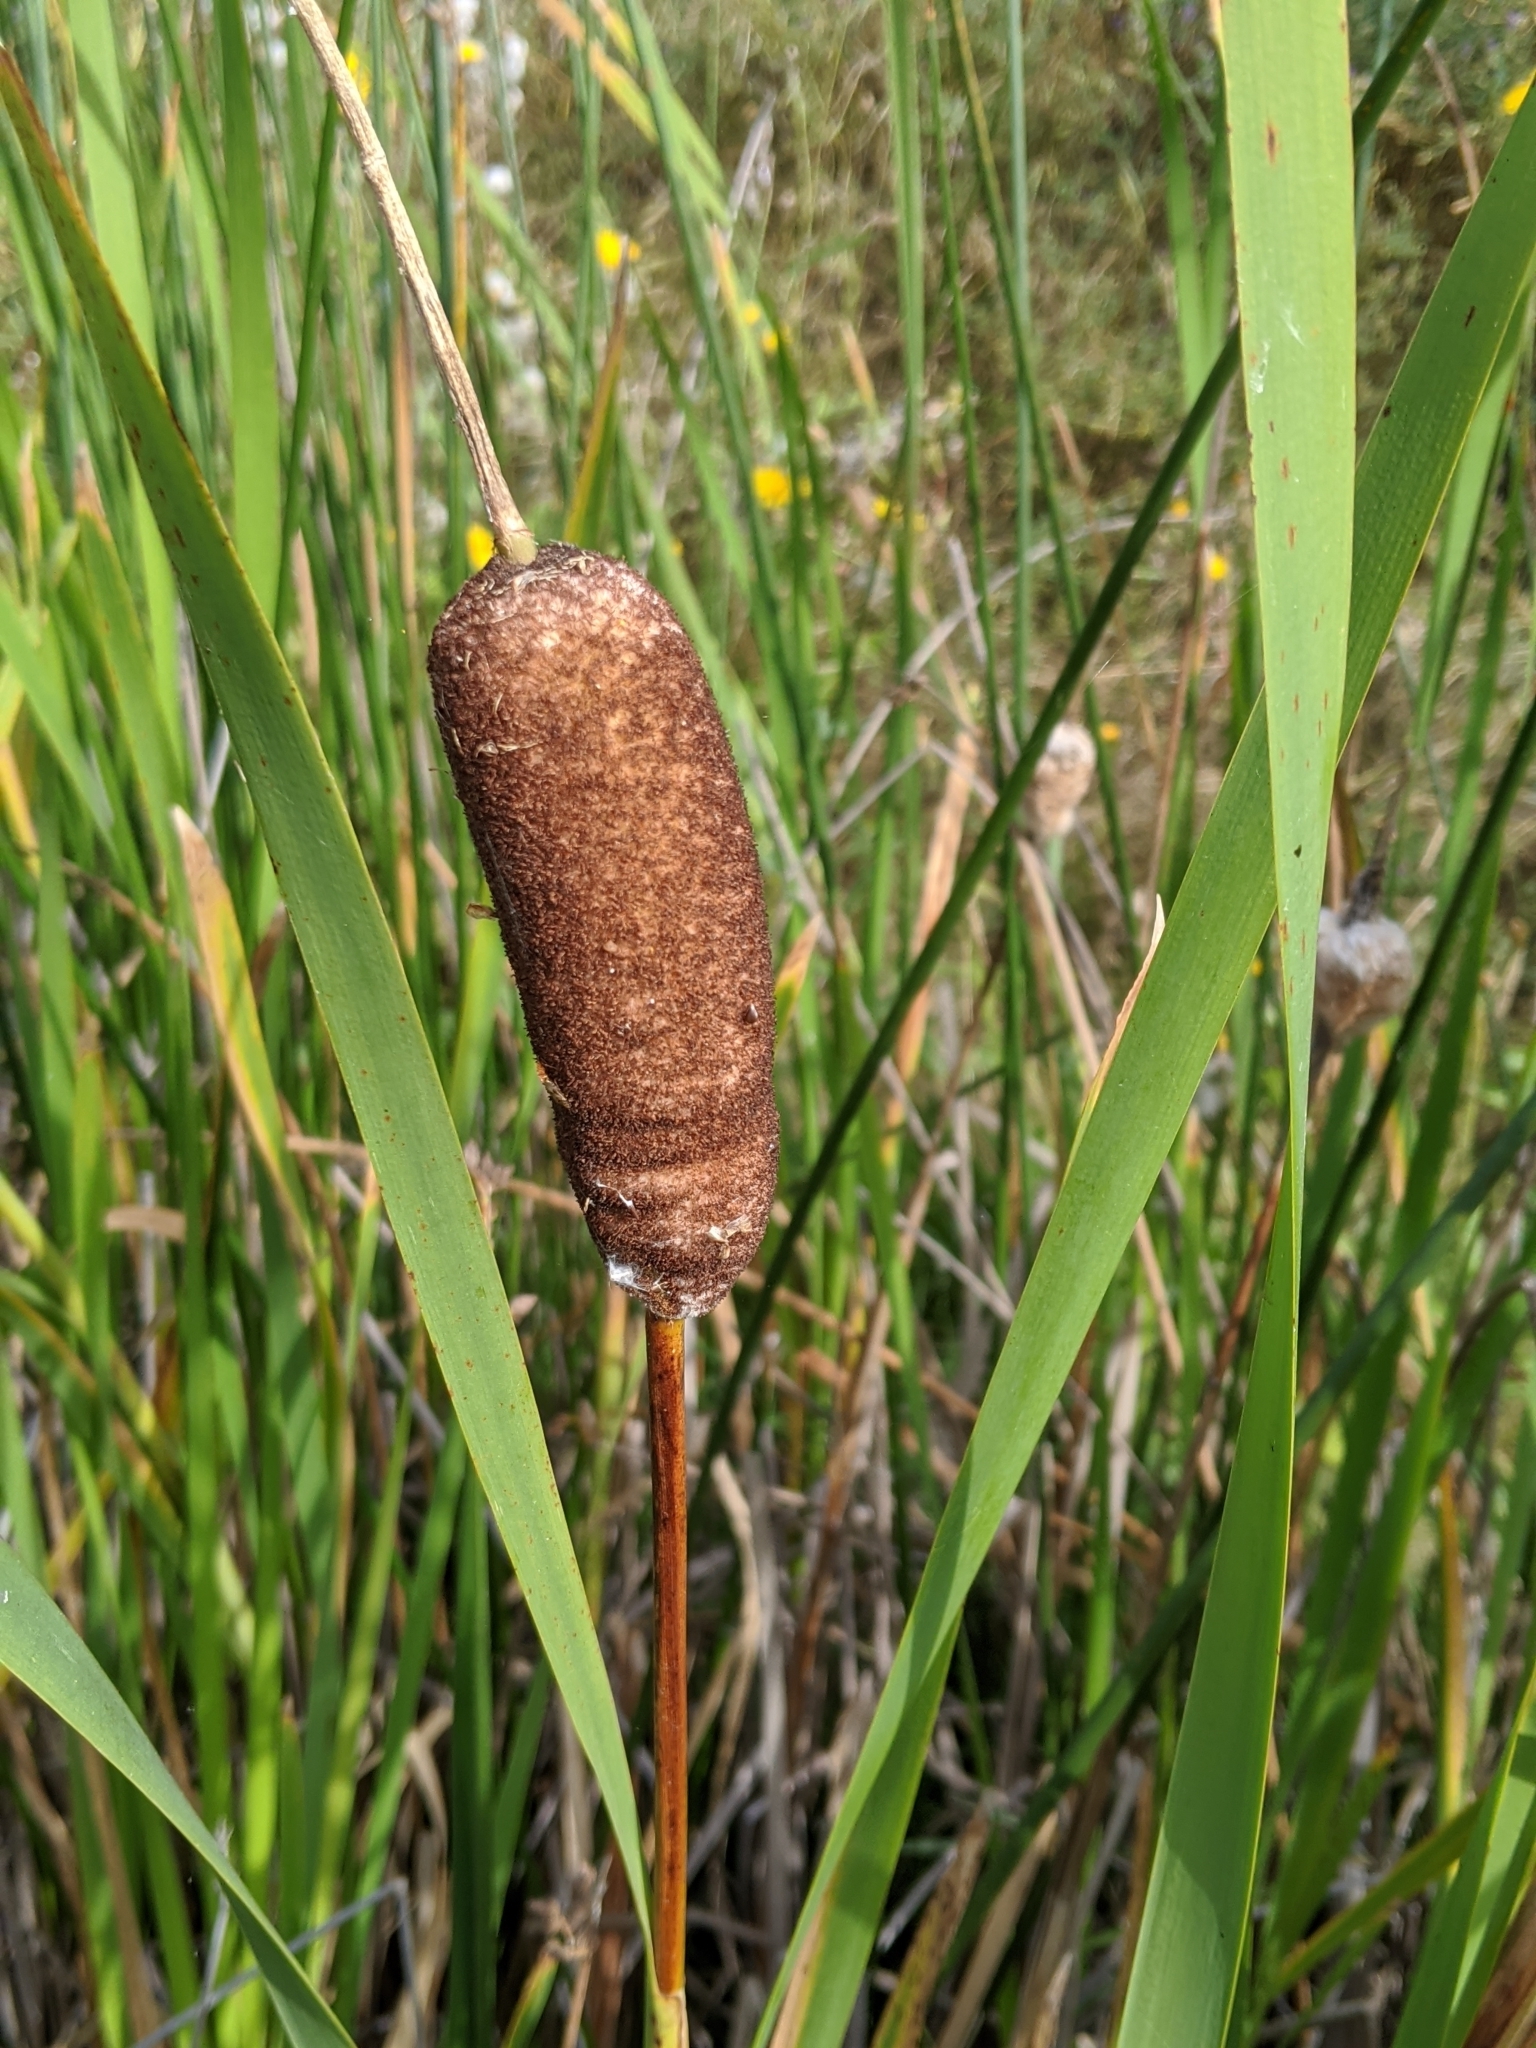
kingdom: Plantae
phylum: Tracheophyta
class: Liliopsida
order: Poales
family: Typhaceae
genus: Typha
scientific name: Typha latifolia
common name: Broadleaf cattail
